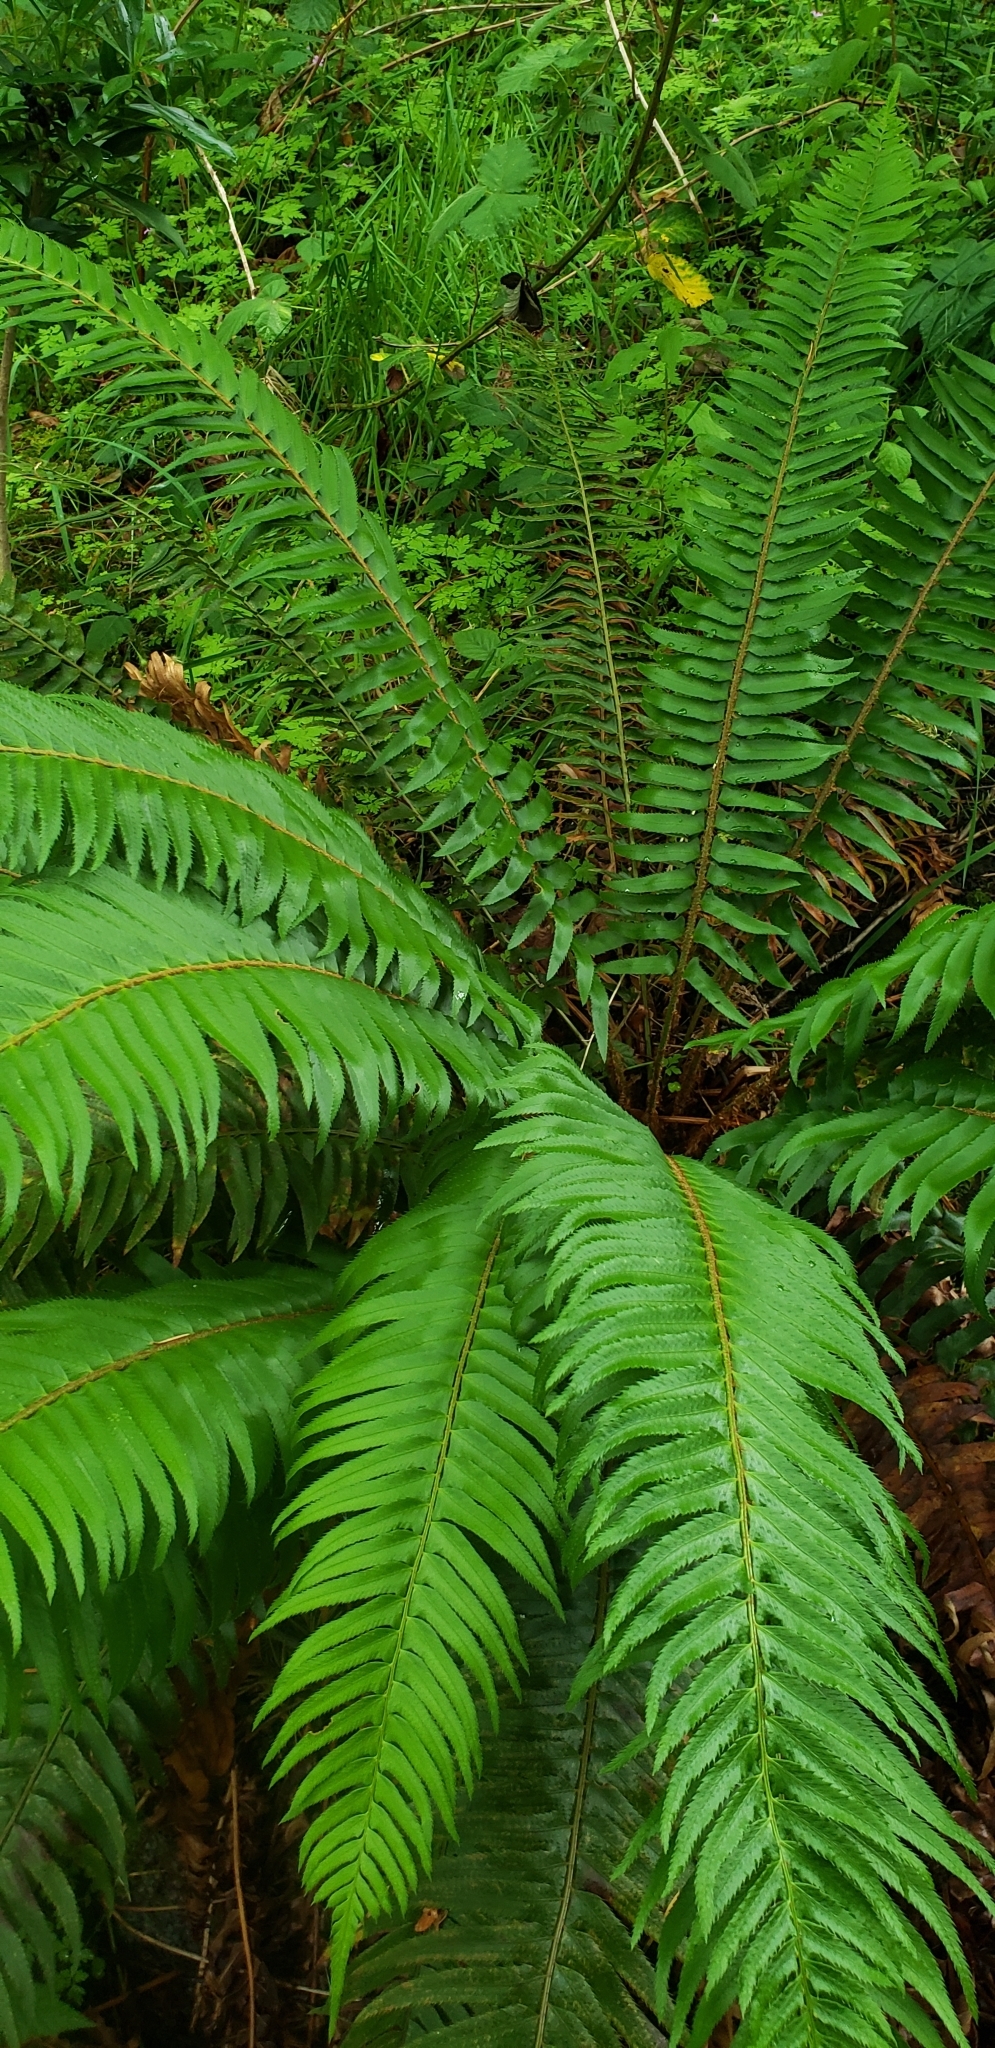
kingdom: Plantae
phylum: Tracheophyta
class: Polypodiopsida
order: Polypodiales
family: Dryopteridaceae
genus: Polystichum
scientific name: Polystichum munitum
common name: Western sword-fern
